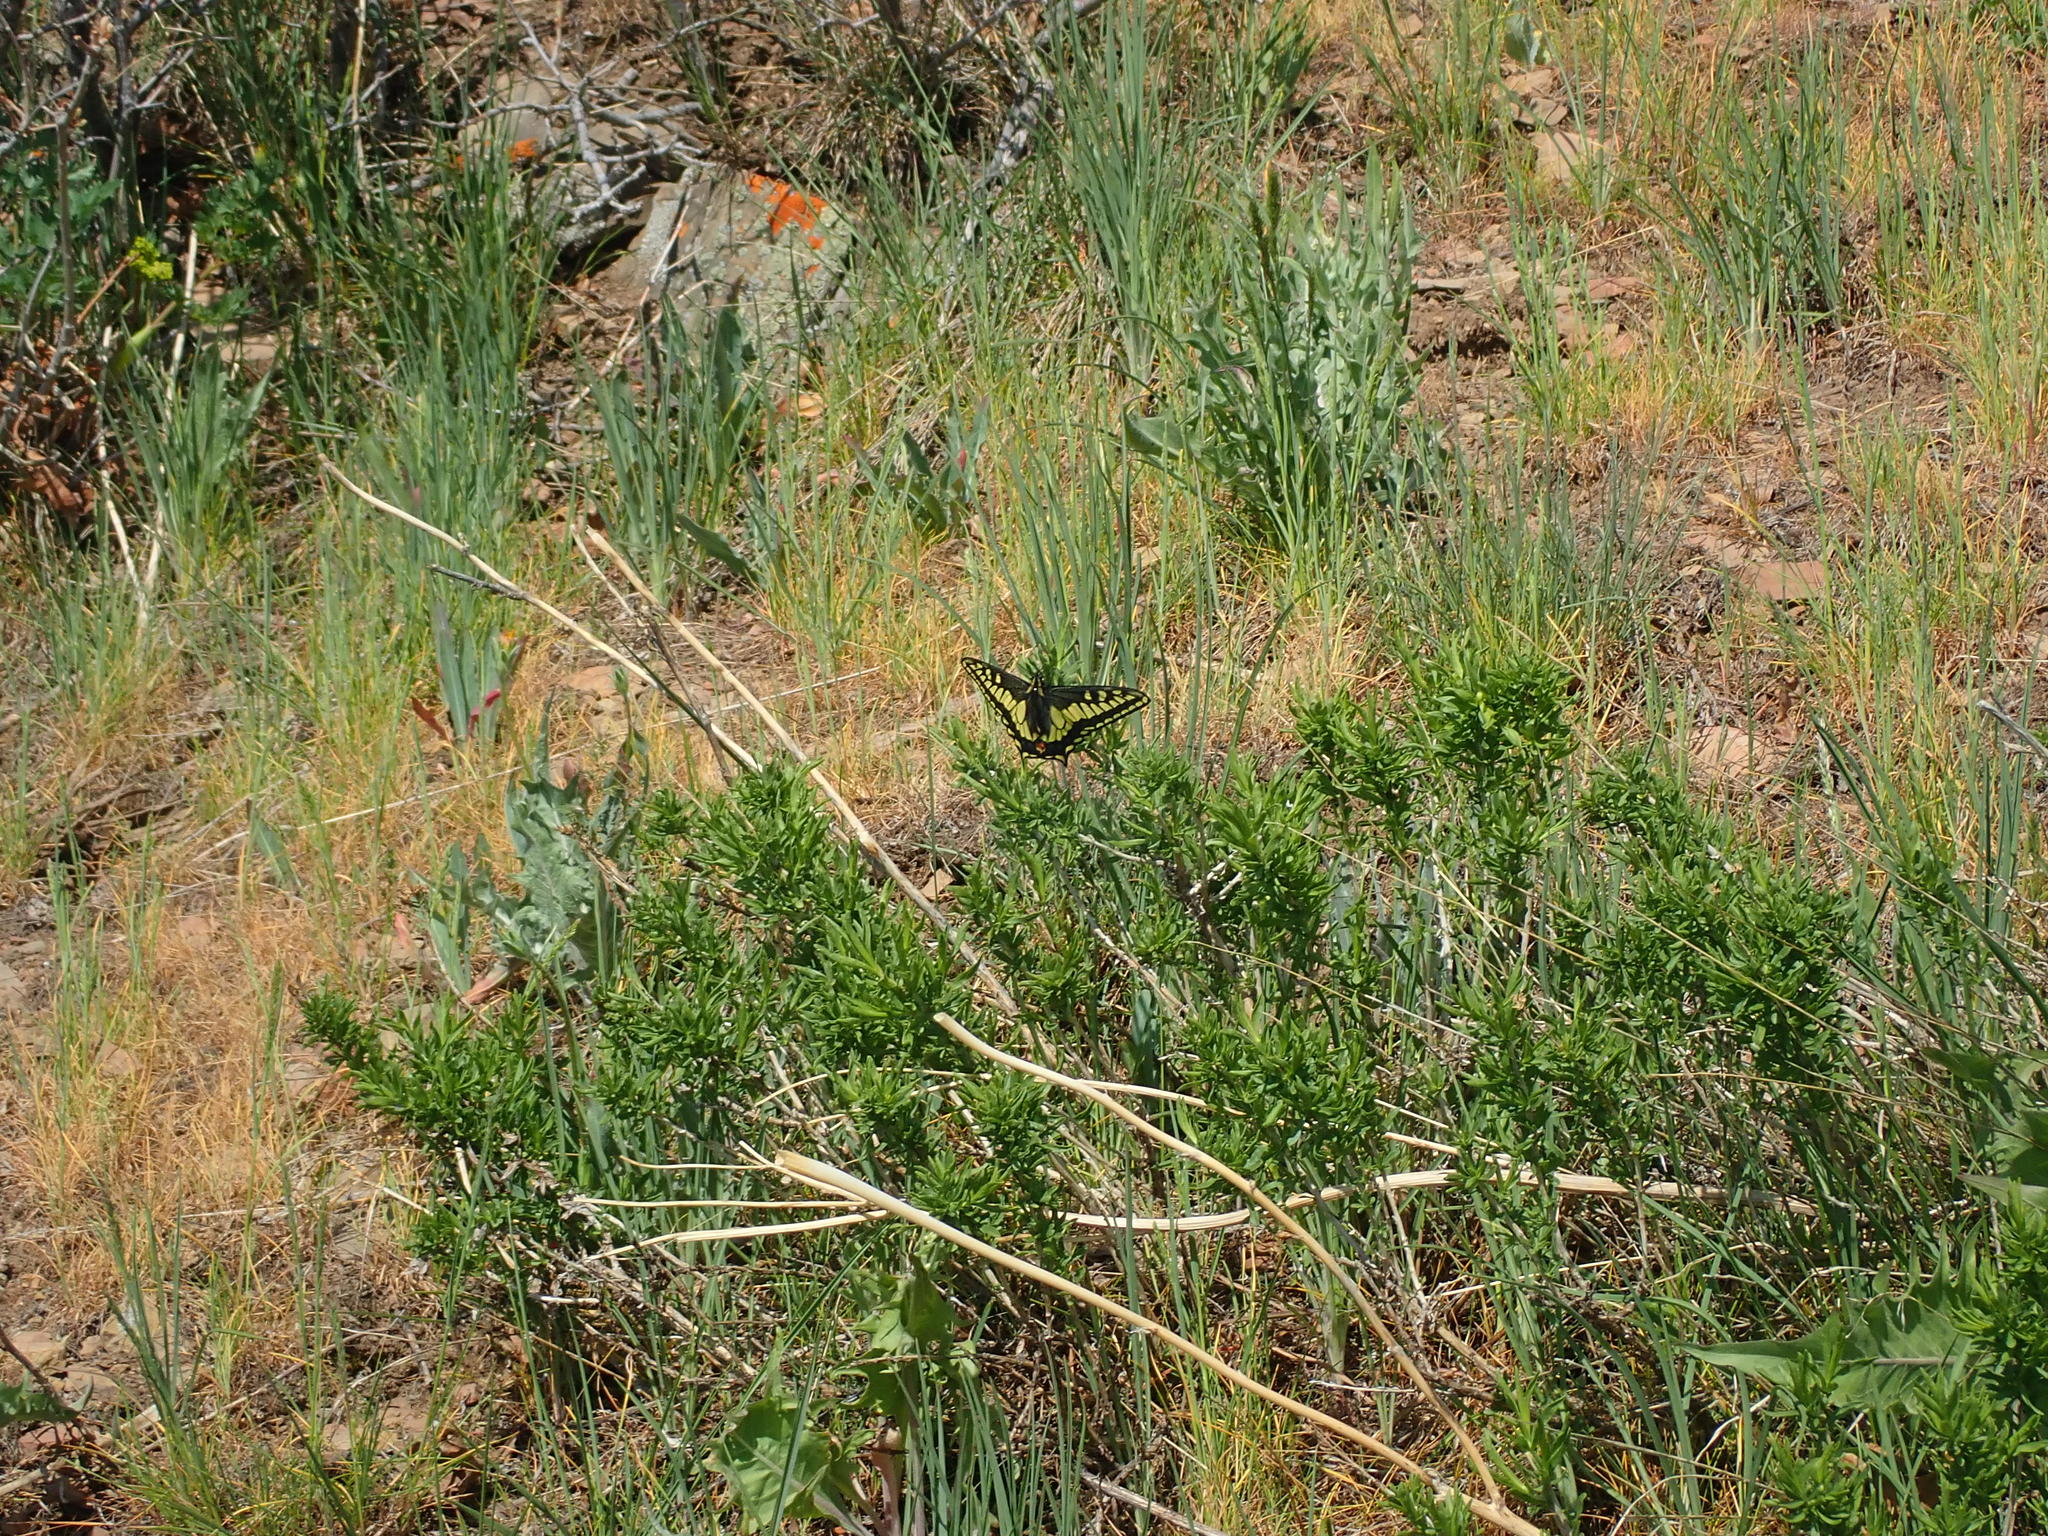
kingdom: Animalia
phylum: Arthropoda
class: Insecta
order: Lepidoptera
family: Papilionidae
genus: Papilio
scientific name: Papilio zelicaon
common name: Anise swallowtail
